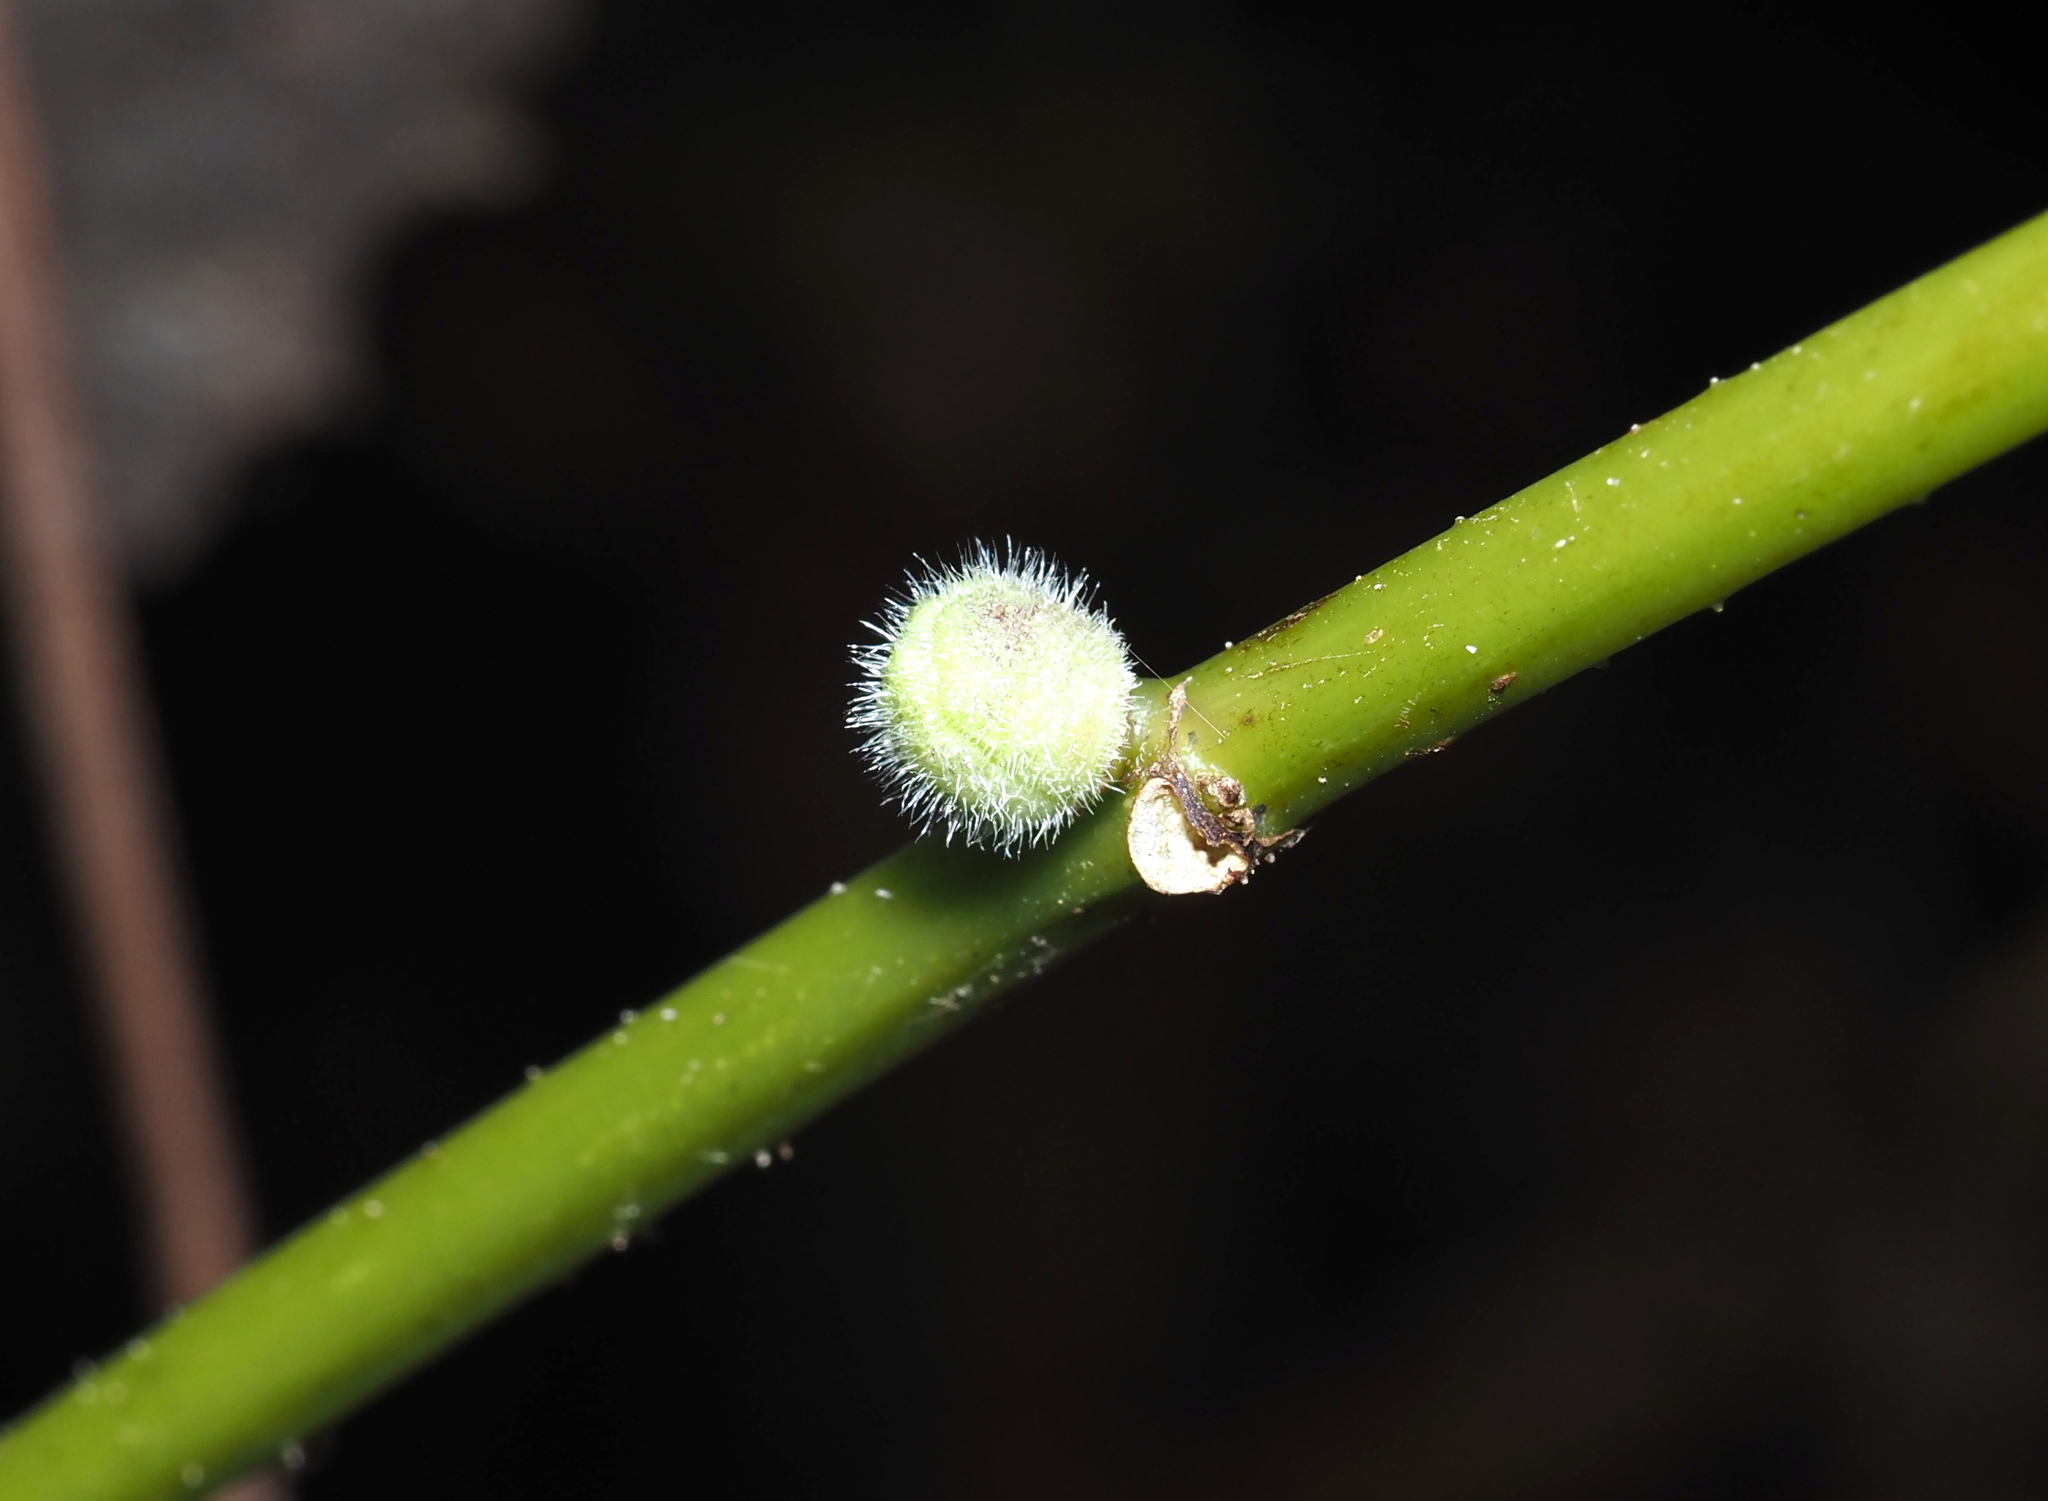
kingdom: Animalia
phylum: Arthropoda
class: Insecta
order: Diptera
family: Cecidomyiidae
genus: Dasineura
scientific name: Dasineura pilosa
